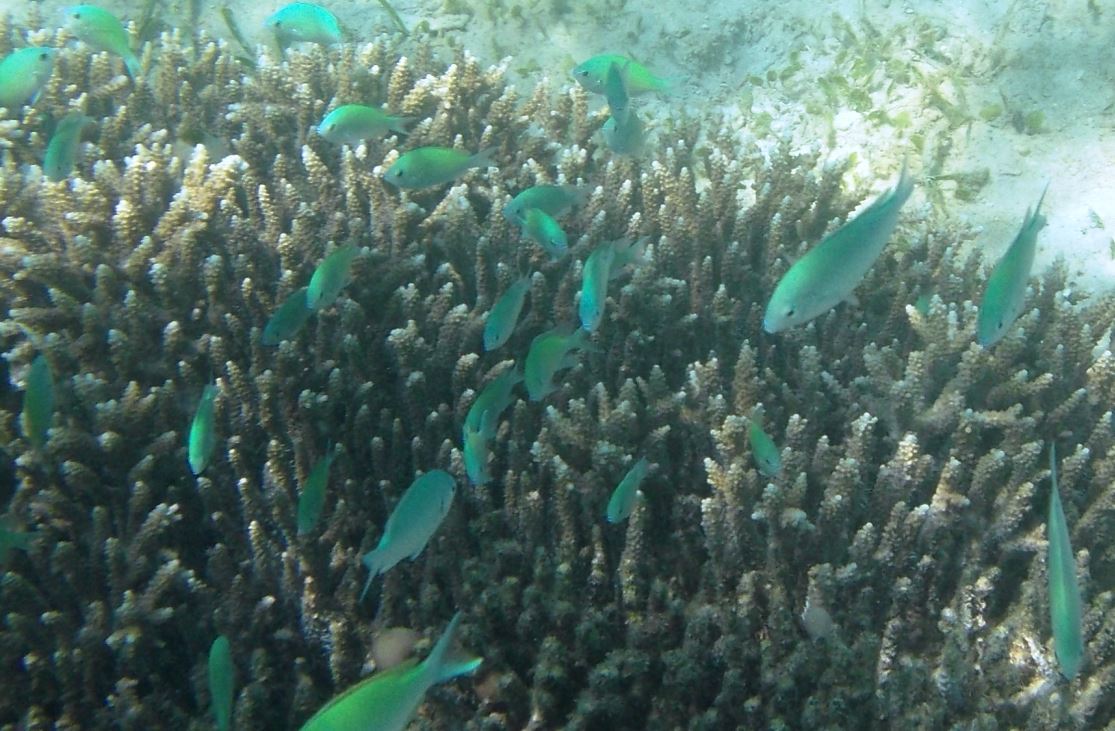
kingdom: Animalia
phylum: Chordata
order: Perciformes
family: Pomacentridae
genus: Chromis
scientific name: Chromis viridis
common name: Blue-green chromis
